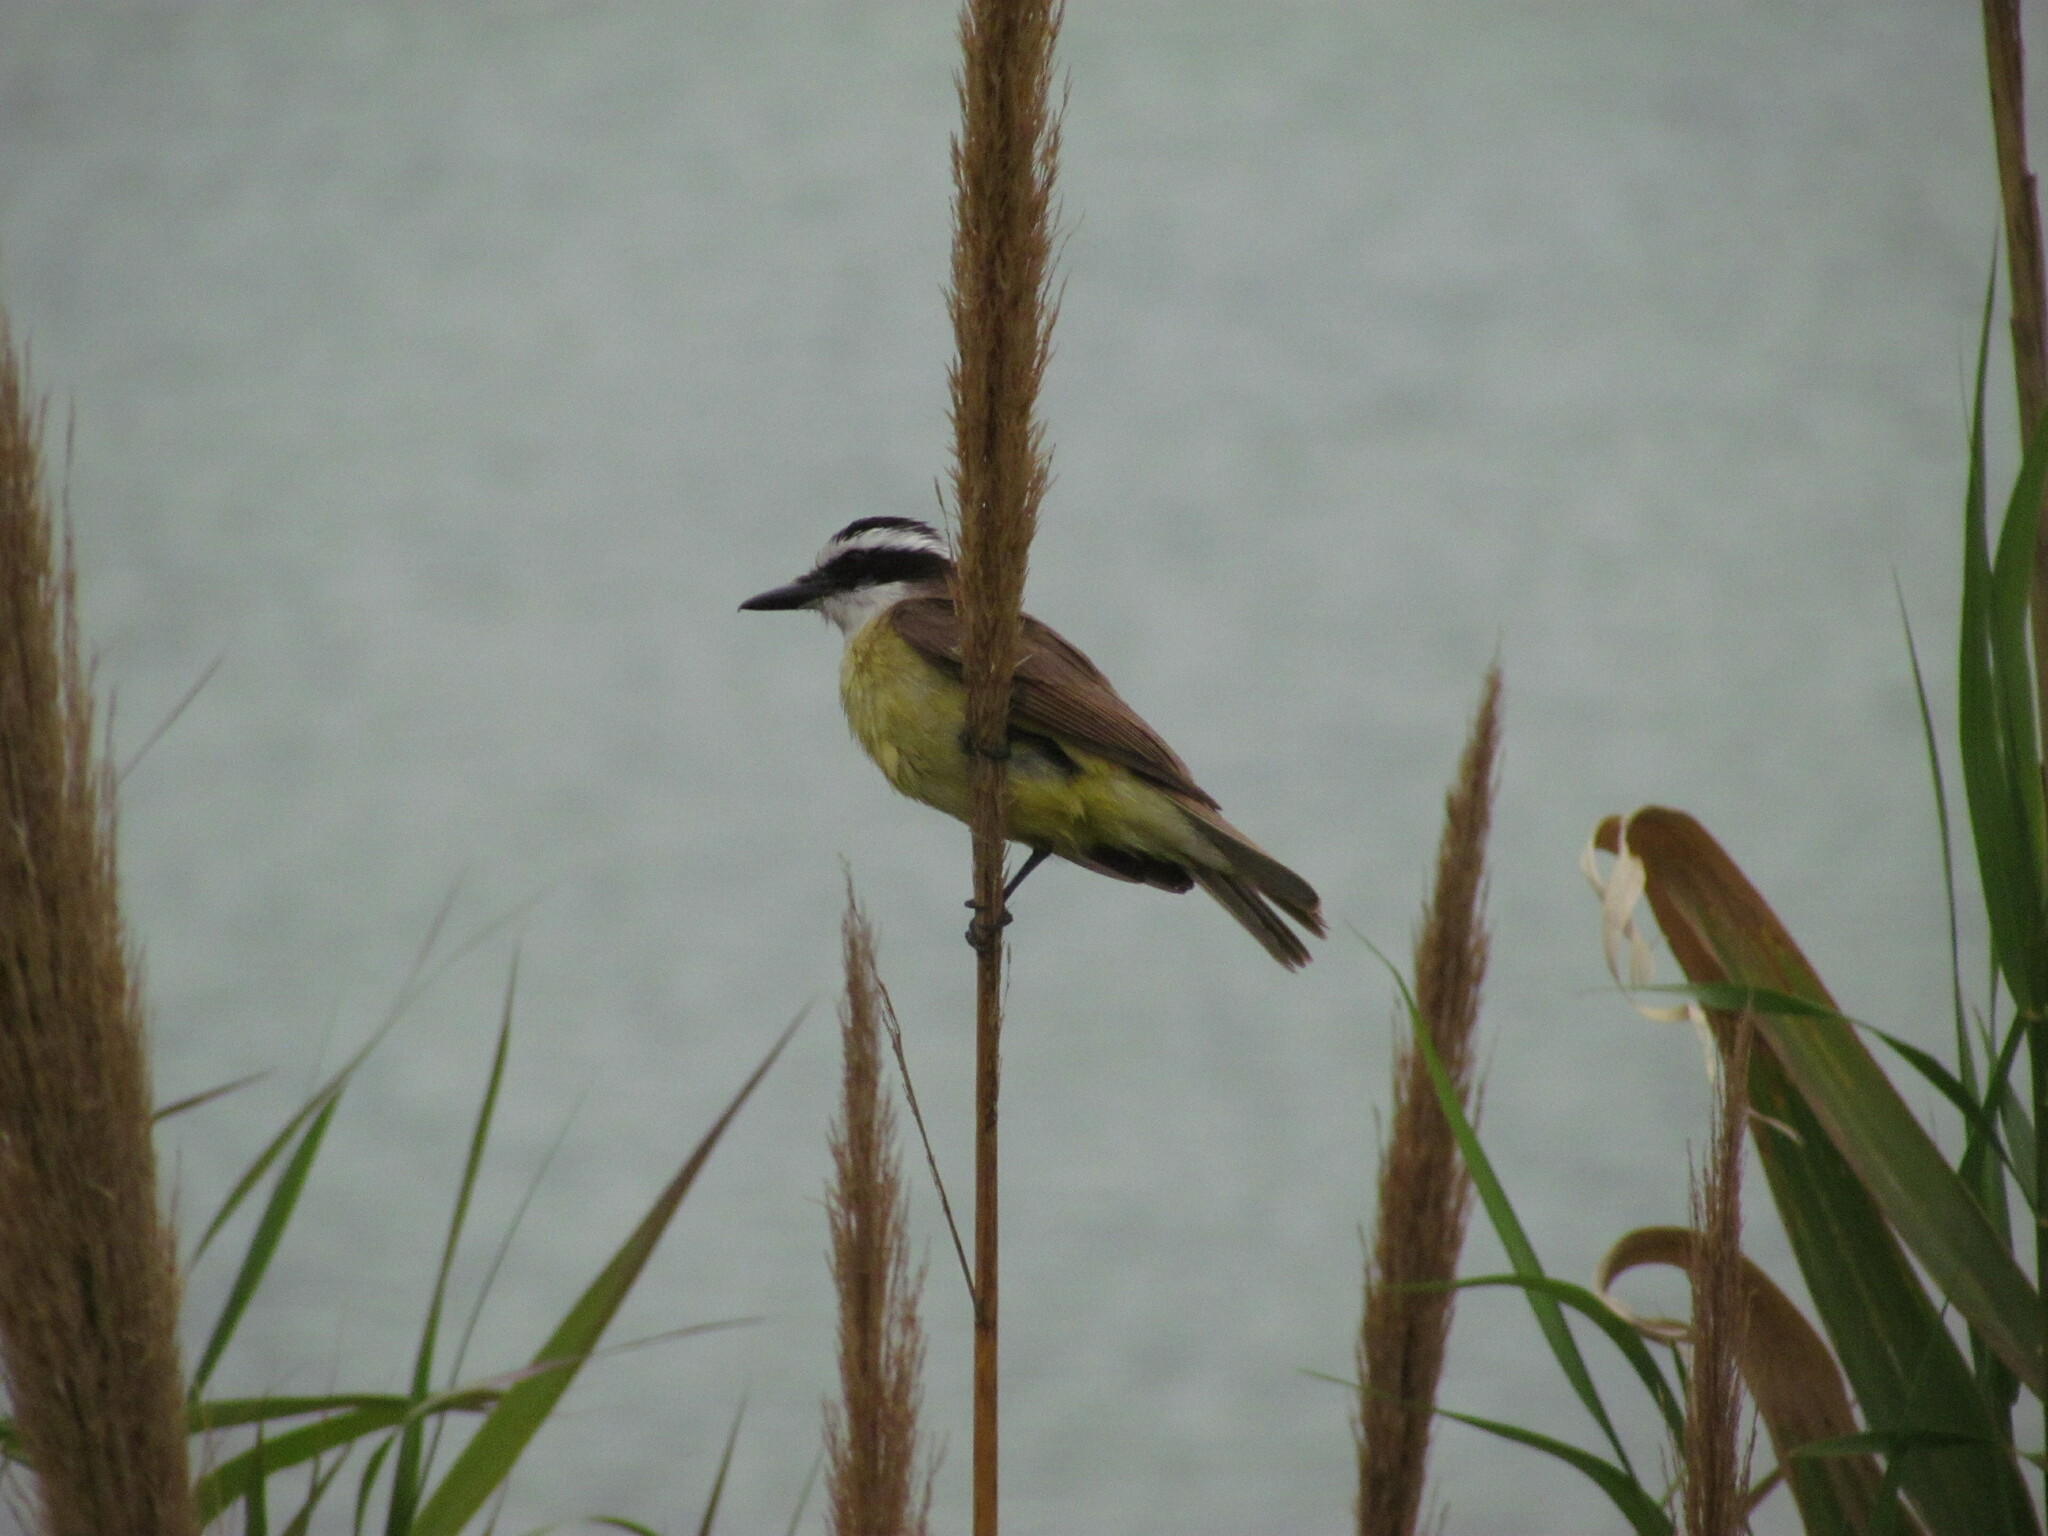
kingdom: Animalia
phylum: Chordata
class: Aves
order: Passeriformes
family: Tyrannidae
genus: Pitangus
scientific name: Pitangus sulphuratus
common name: Great kiskadee
